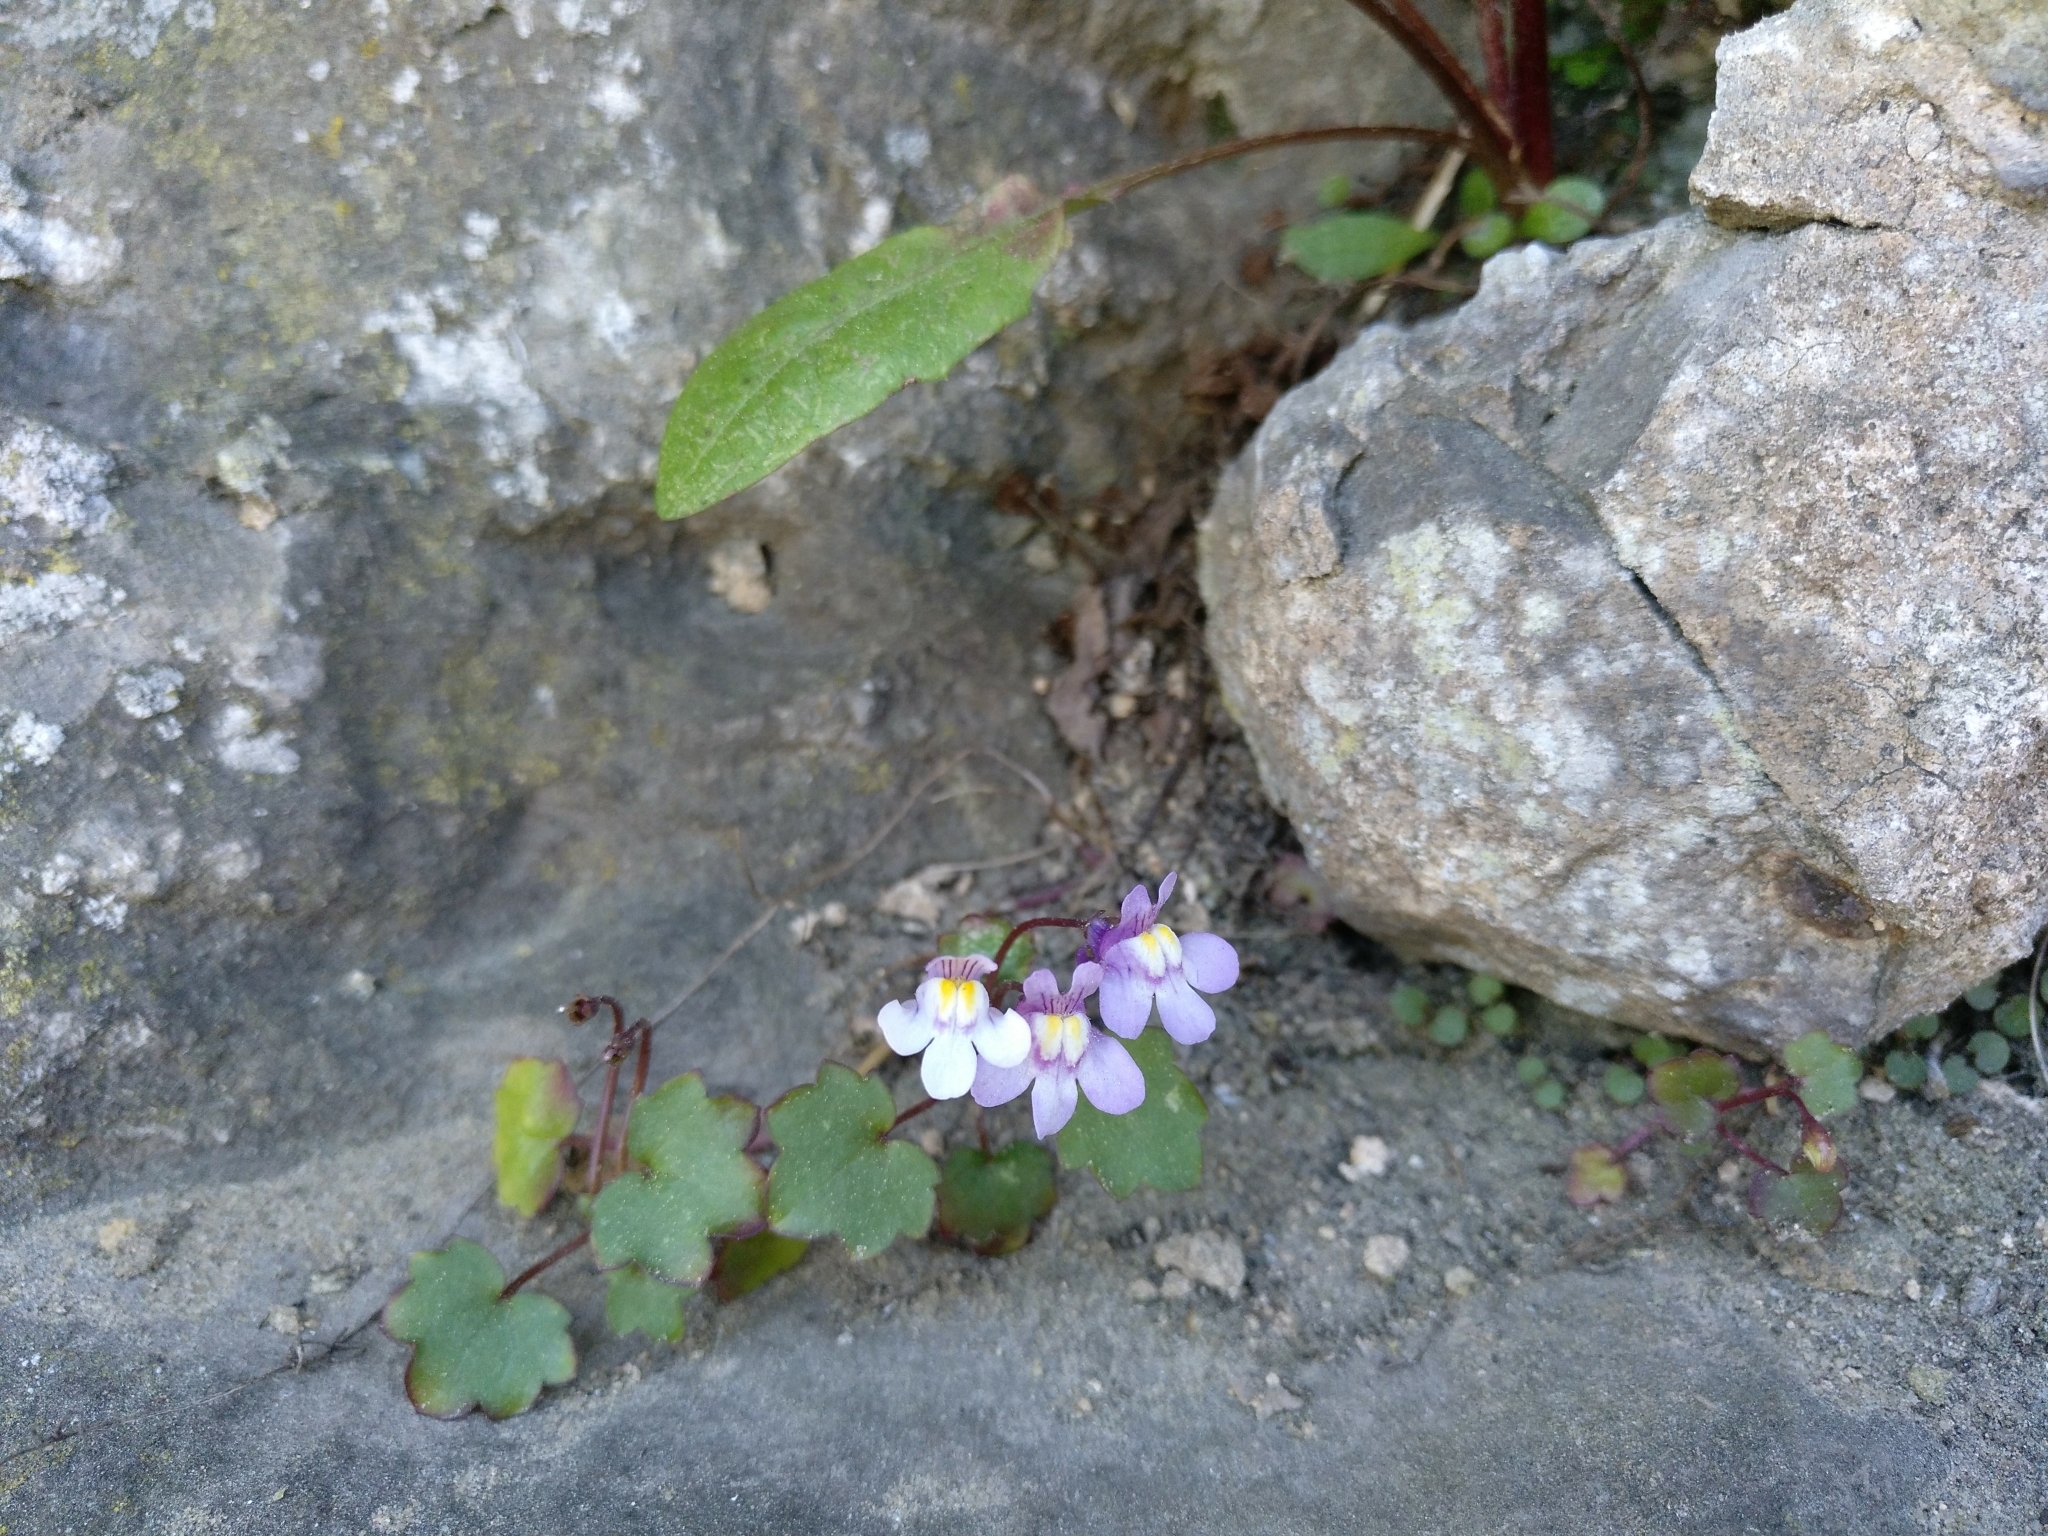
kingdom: Plantae
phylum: Tracheophyta
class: Magnoliopsida
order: Lamiales
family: Plantaginaceae
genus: Cymbalaria
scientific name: Cymbalaria muralis
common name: Ivy-leaved toadflax
